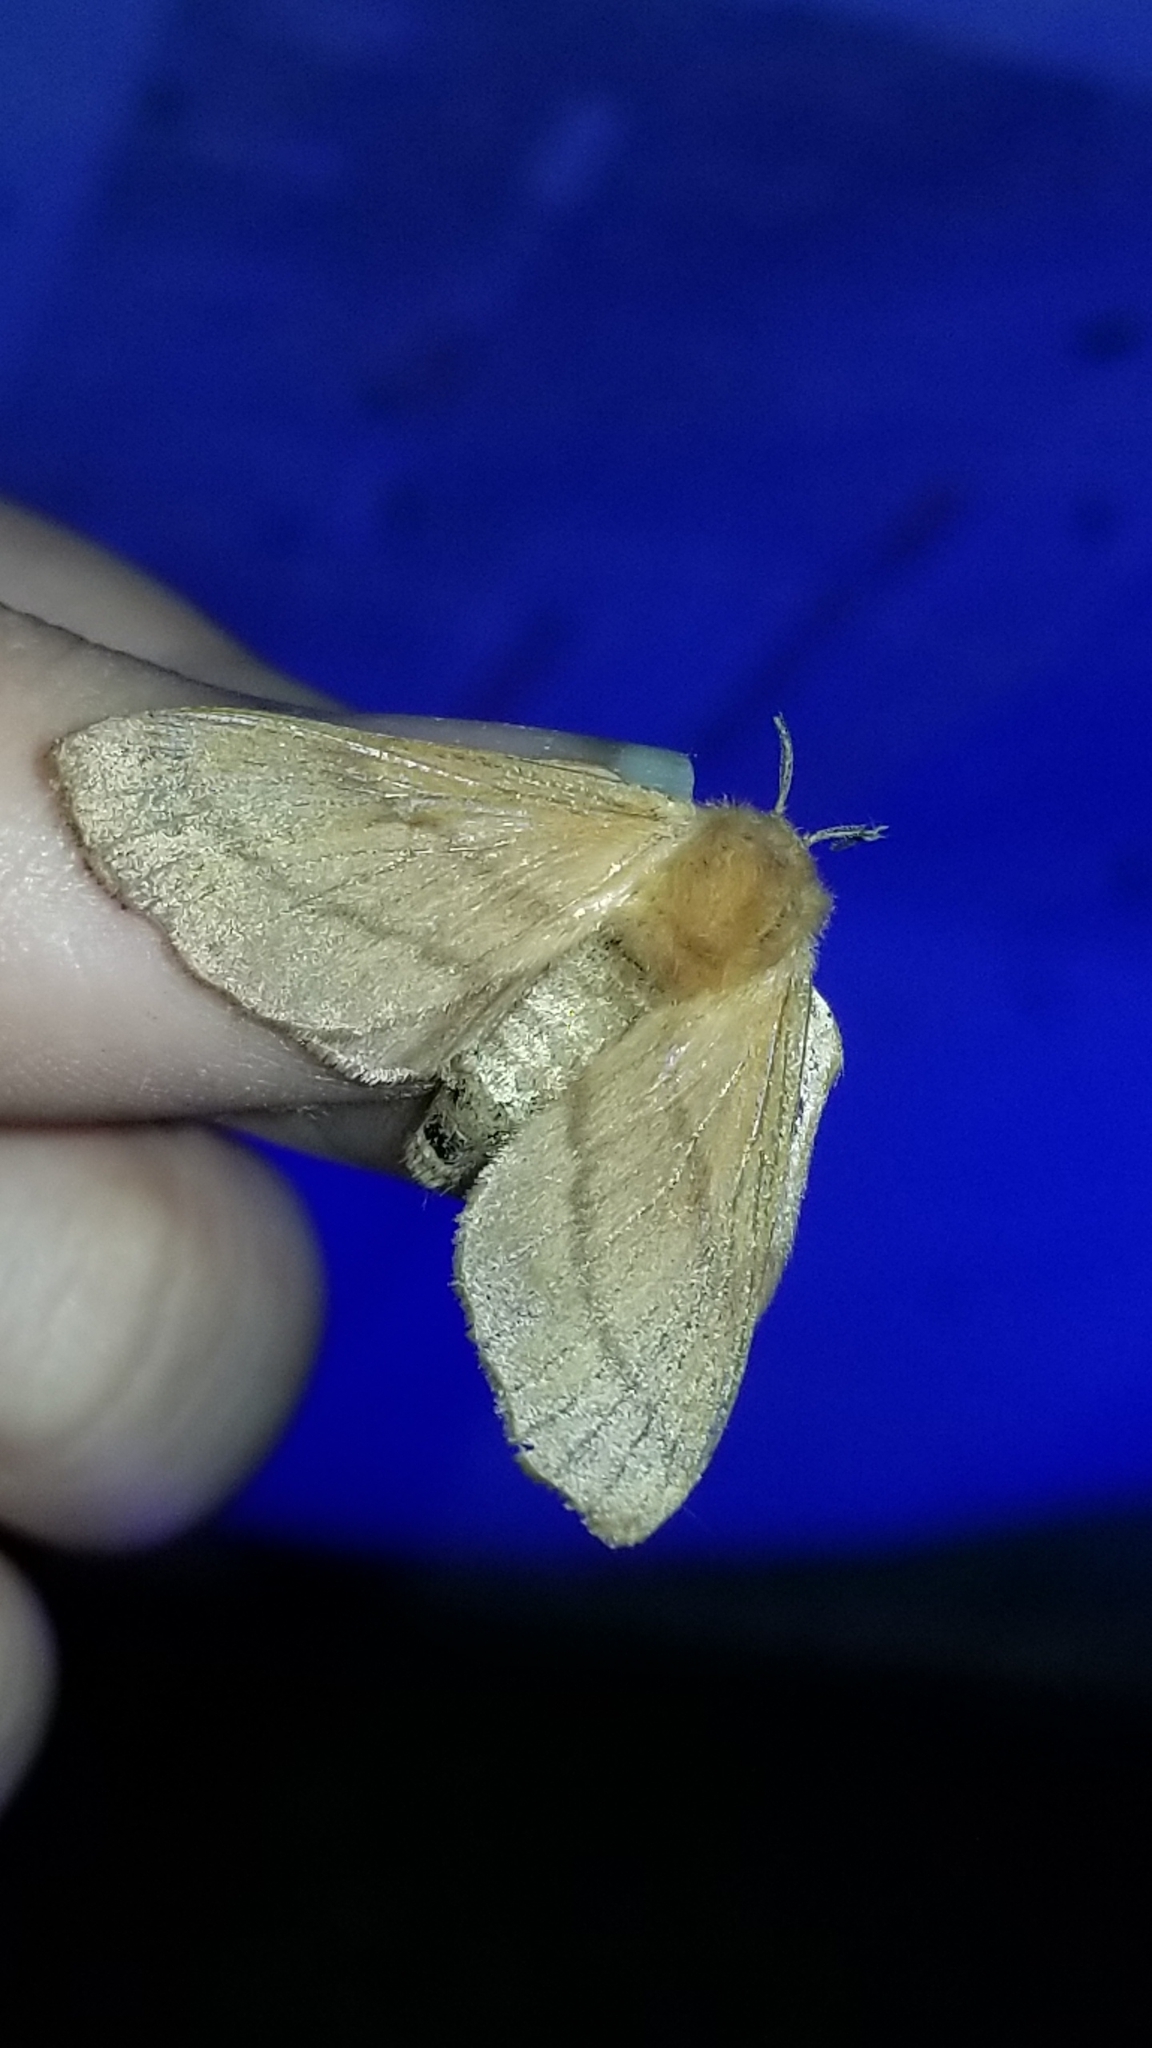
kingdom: Animalia
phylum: Arthropoda
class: Insecta
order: Lepidoptera
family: Lasiocampidae
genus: Malacosoma
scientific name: Malacosoma disstria
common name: Forest tent caterpillar
